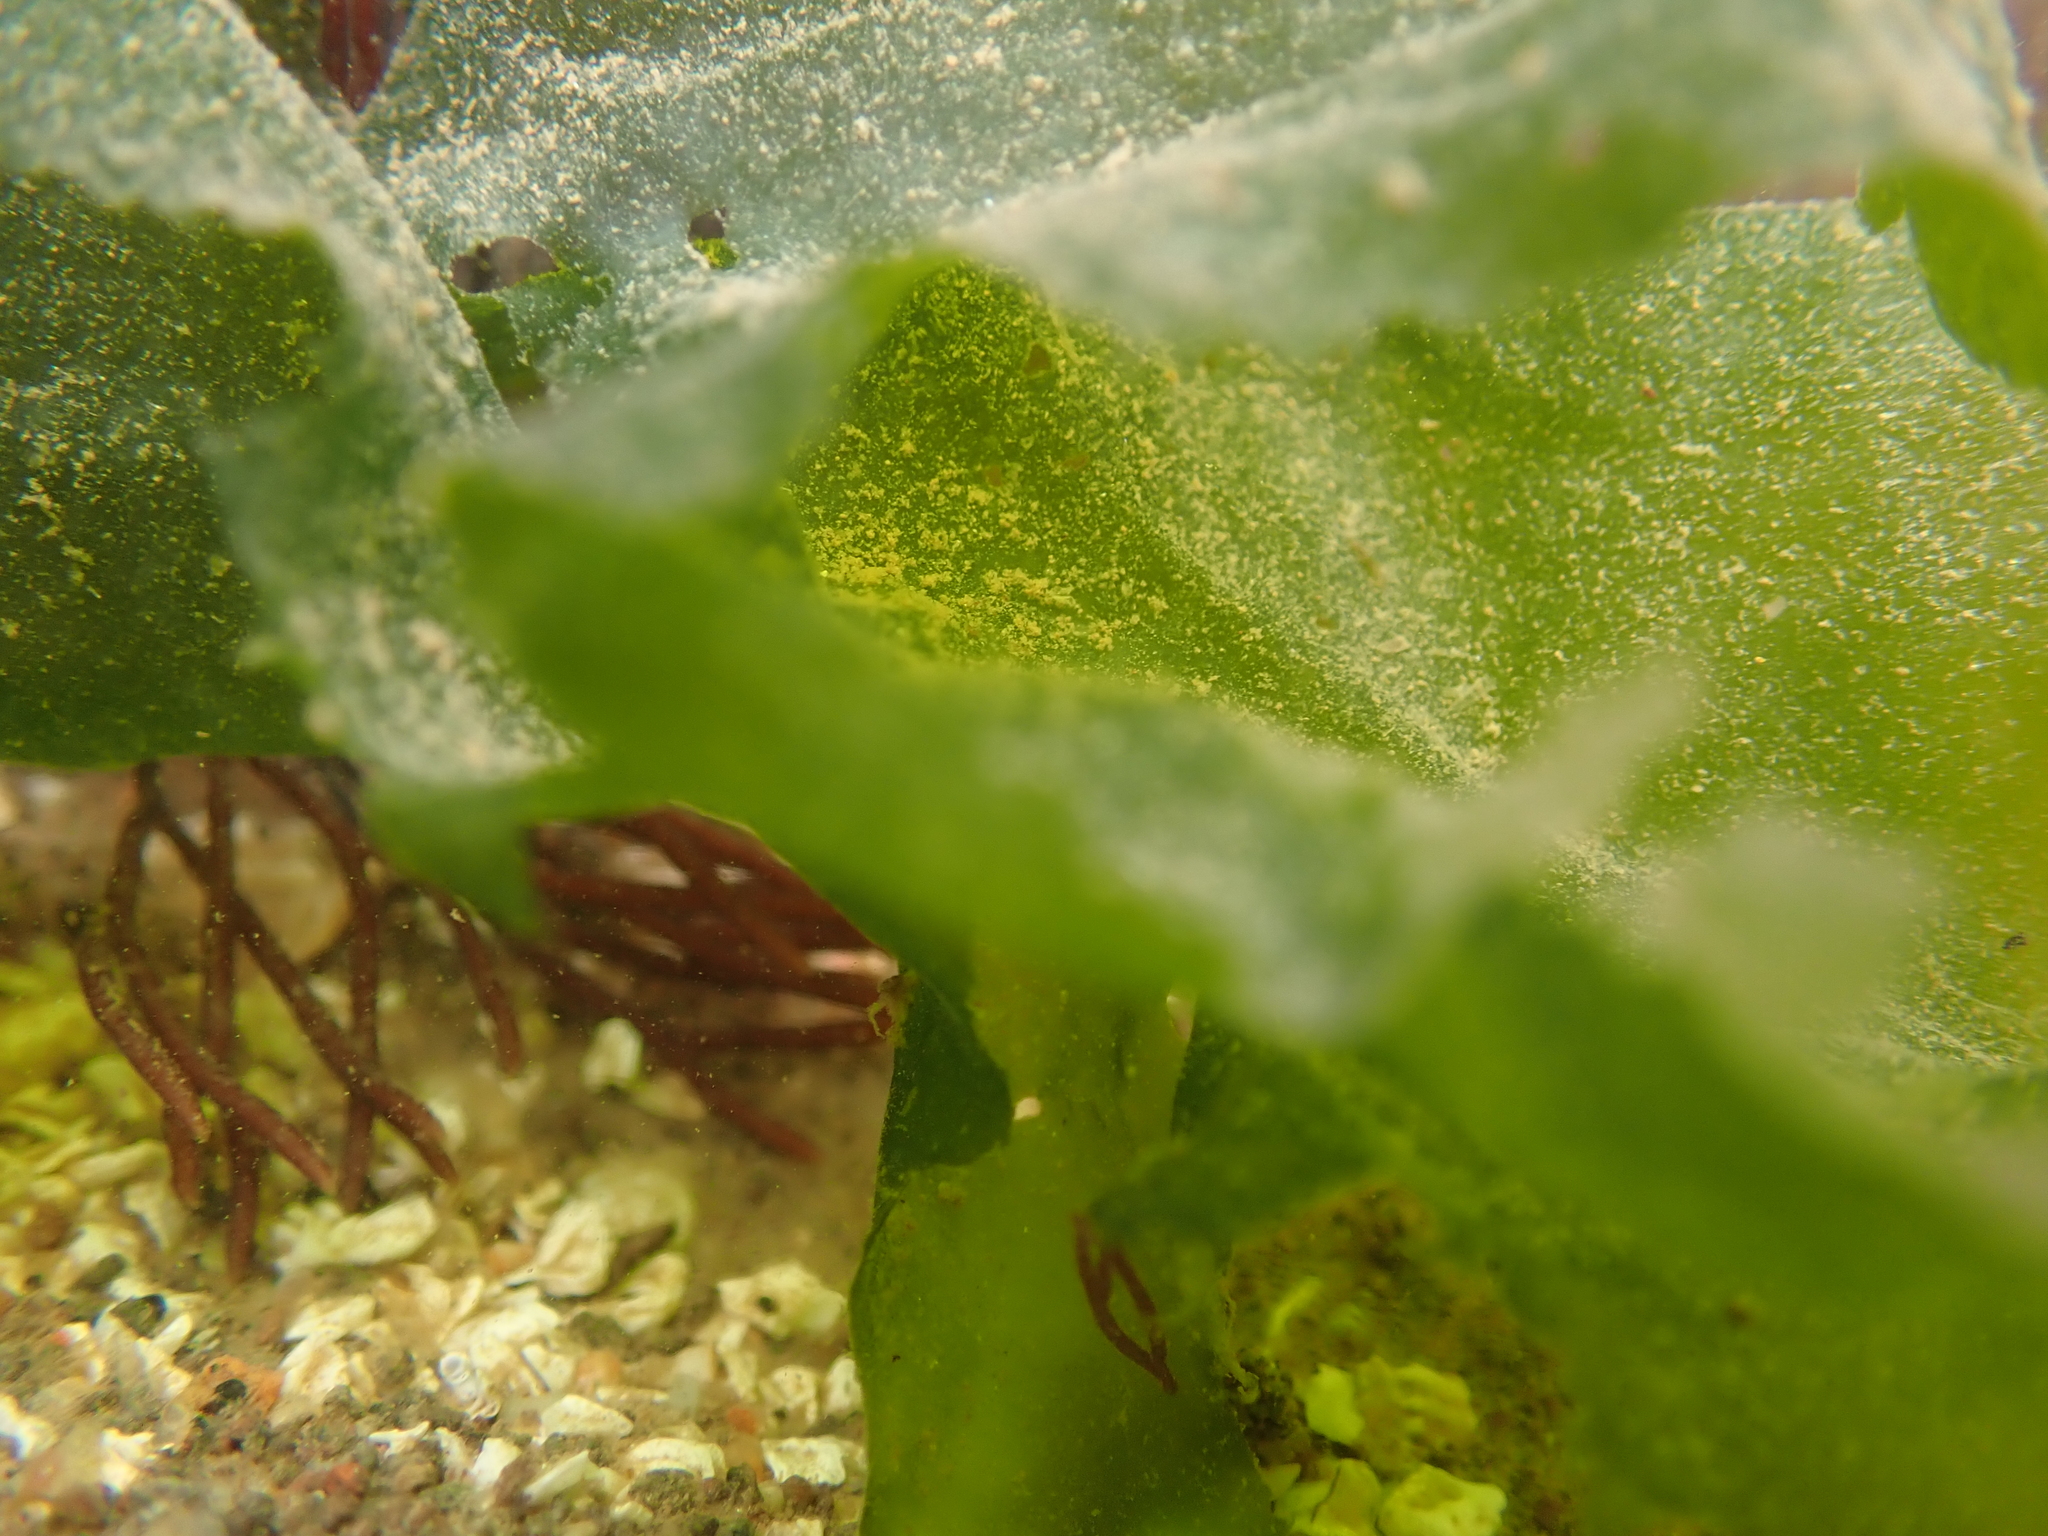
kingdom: Plantae
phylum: Chlorophyta
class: Ulvophyceae
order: Ulvales
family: Ulvaceae
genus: Ulva
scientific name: Ulva lactuca
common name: Sea lettuce
